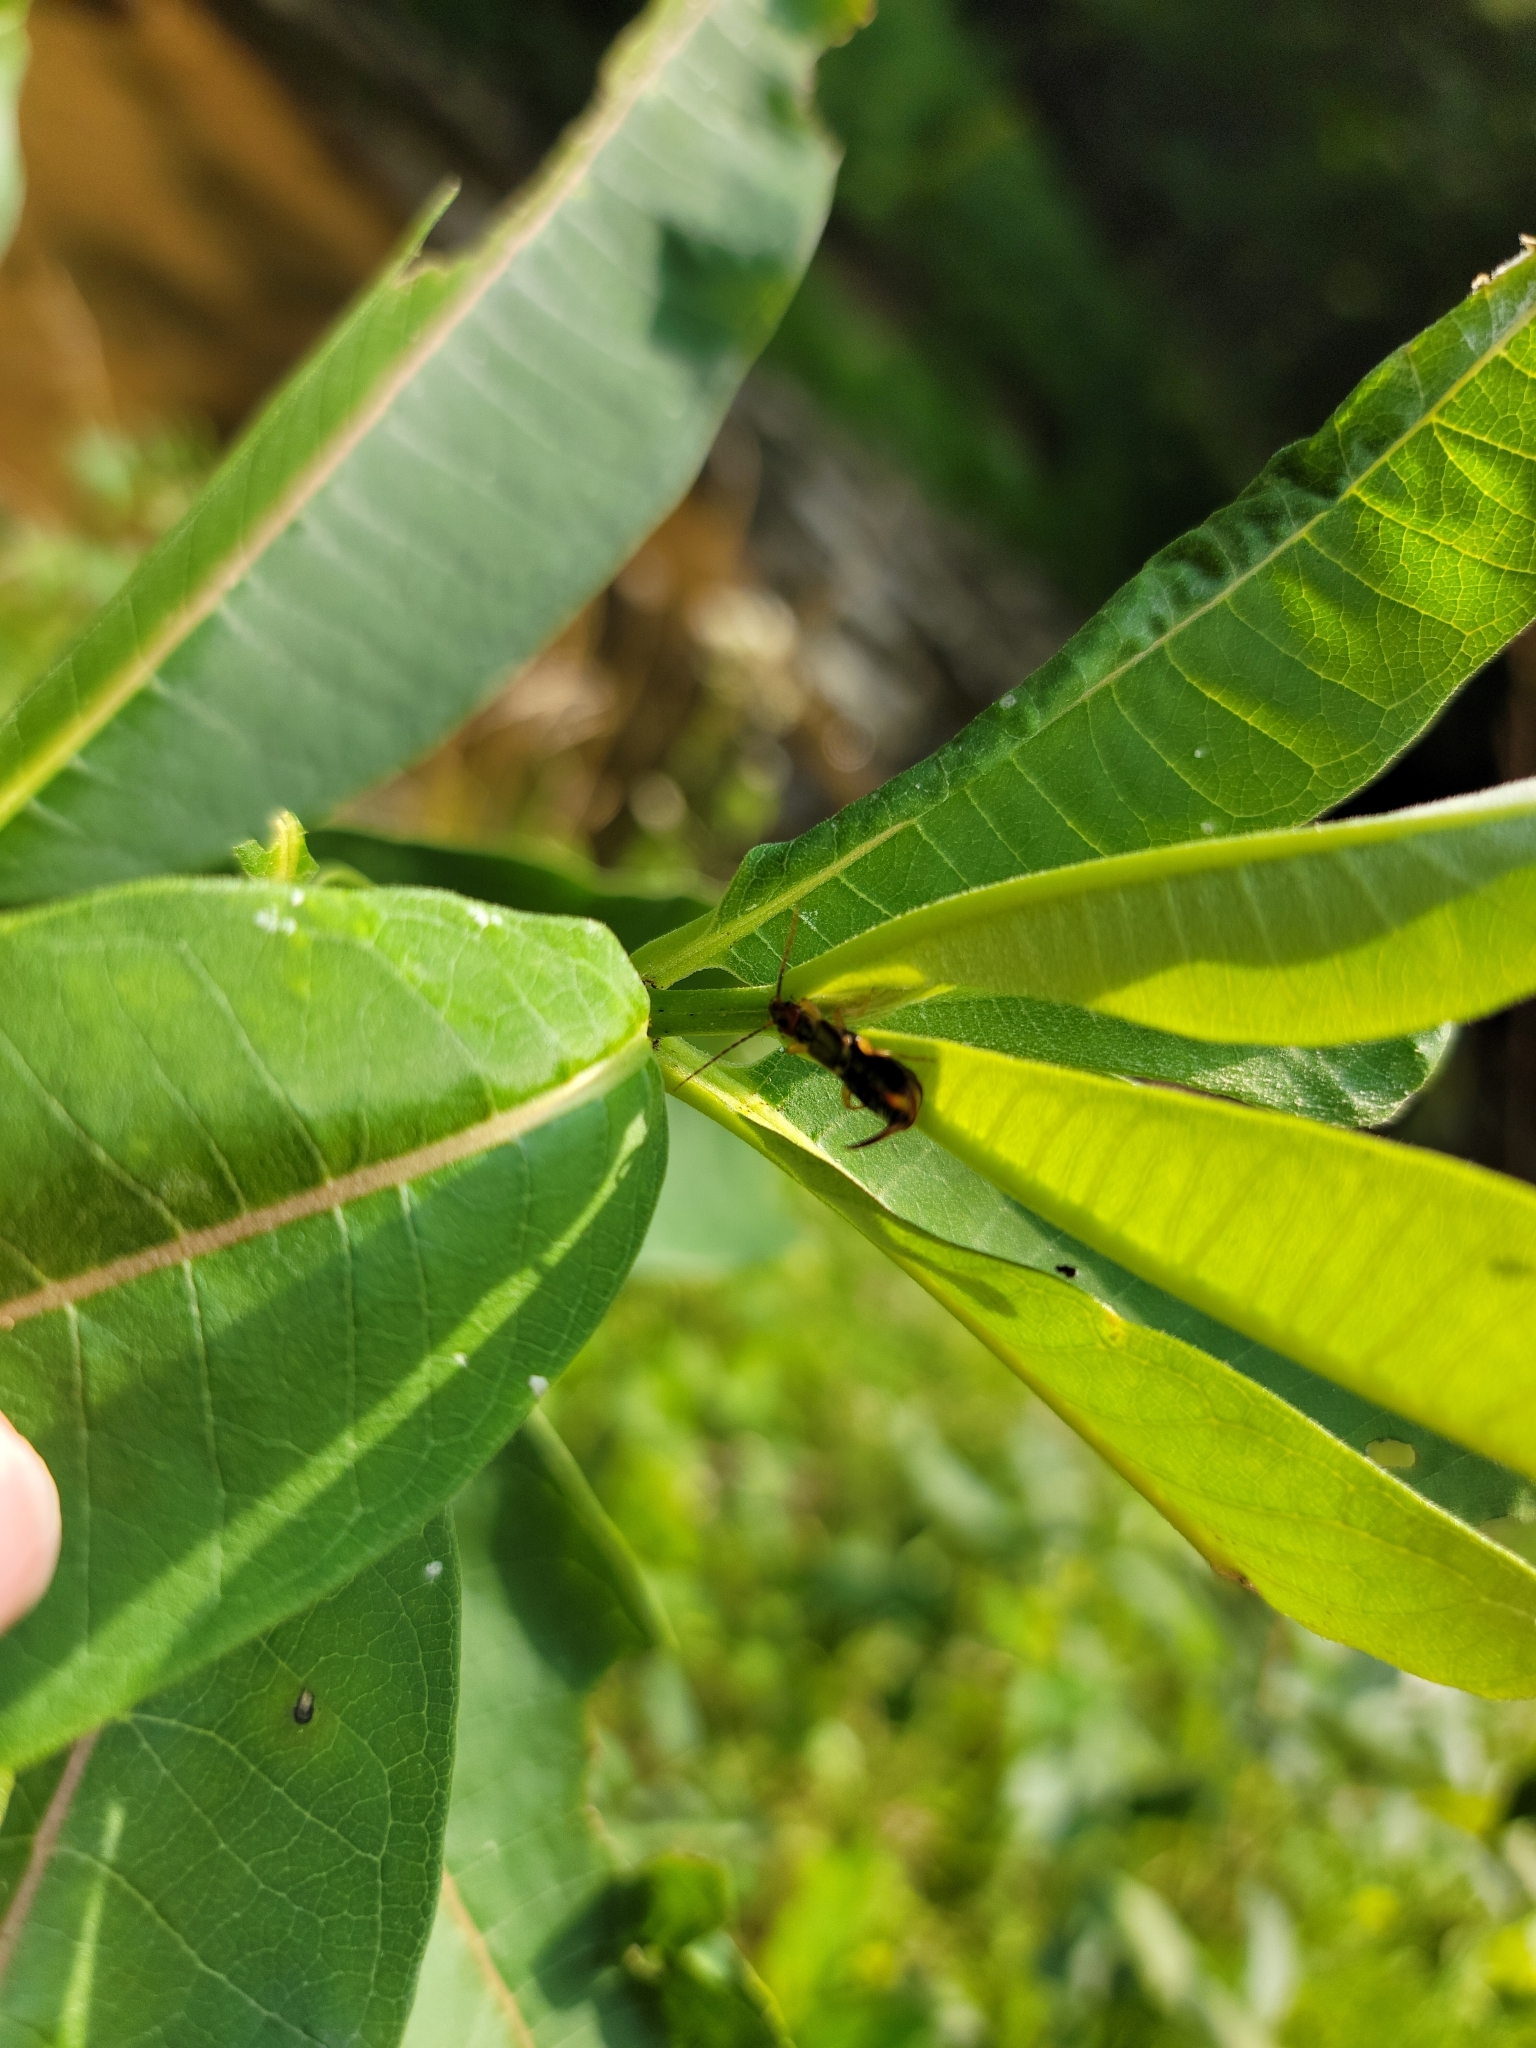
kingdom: Animalia
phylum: Arthropoda
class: Insecta
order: Dermaptera
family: Forficulidae
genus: Forficula
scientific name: Forficula
